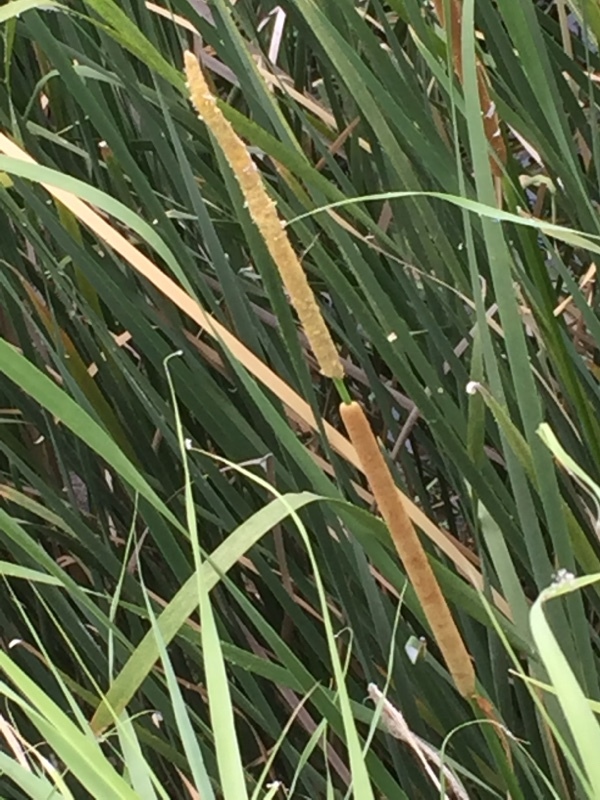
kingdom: Plantae
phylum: Tracheophyta
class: Liliopsida
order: Poales
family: Typhaceae
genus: Typha
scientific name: Typha angustifolia
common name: Lesser bulrush
